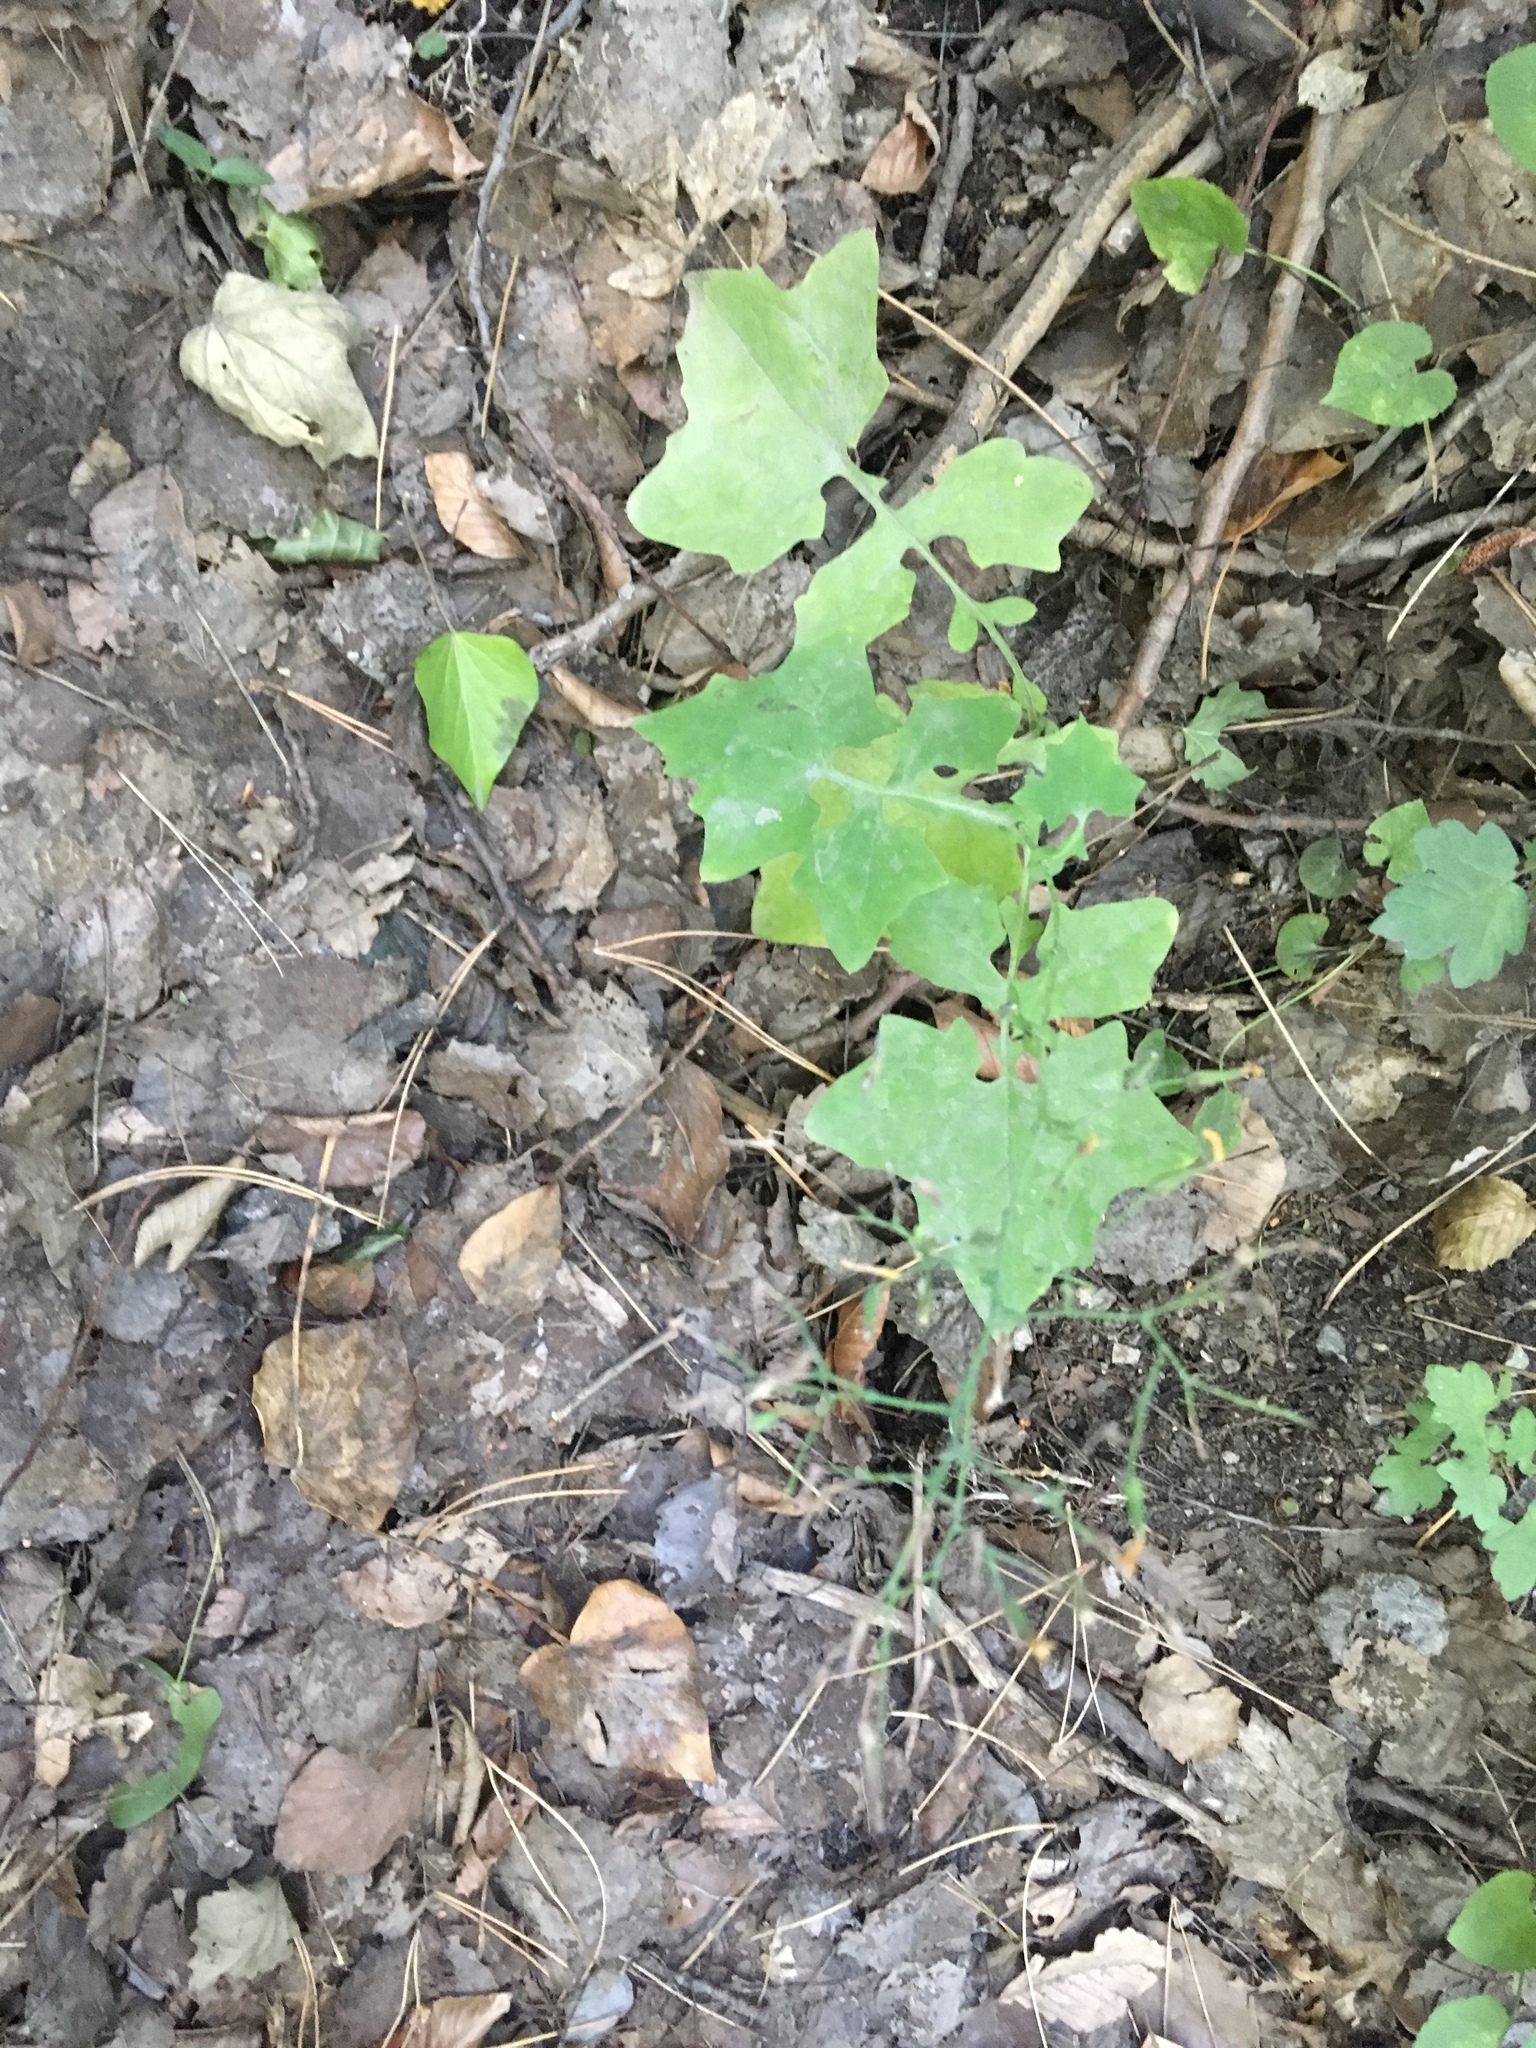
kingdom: Plantae
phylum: Tracheophyta
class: Magnoliopsida
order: Asterales
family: Asteraceae
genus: Mycelis
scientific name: Mycelis muralis
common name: Wall lettuce
